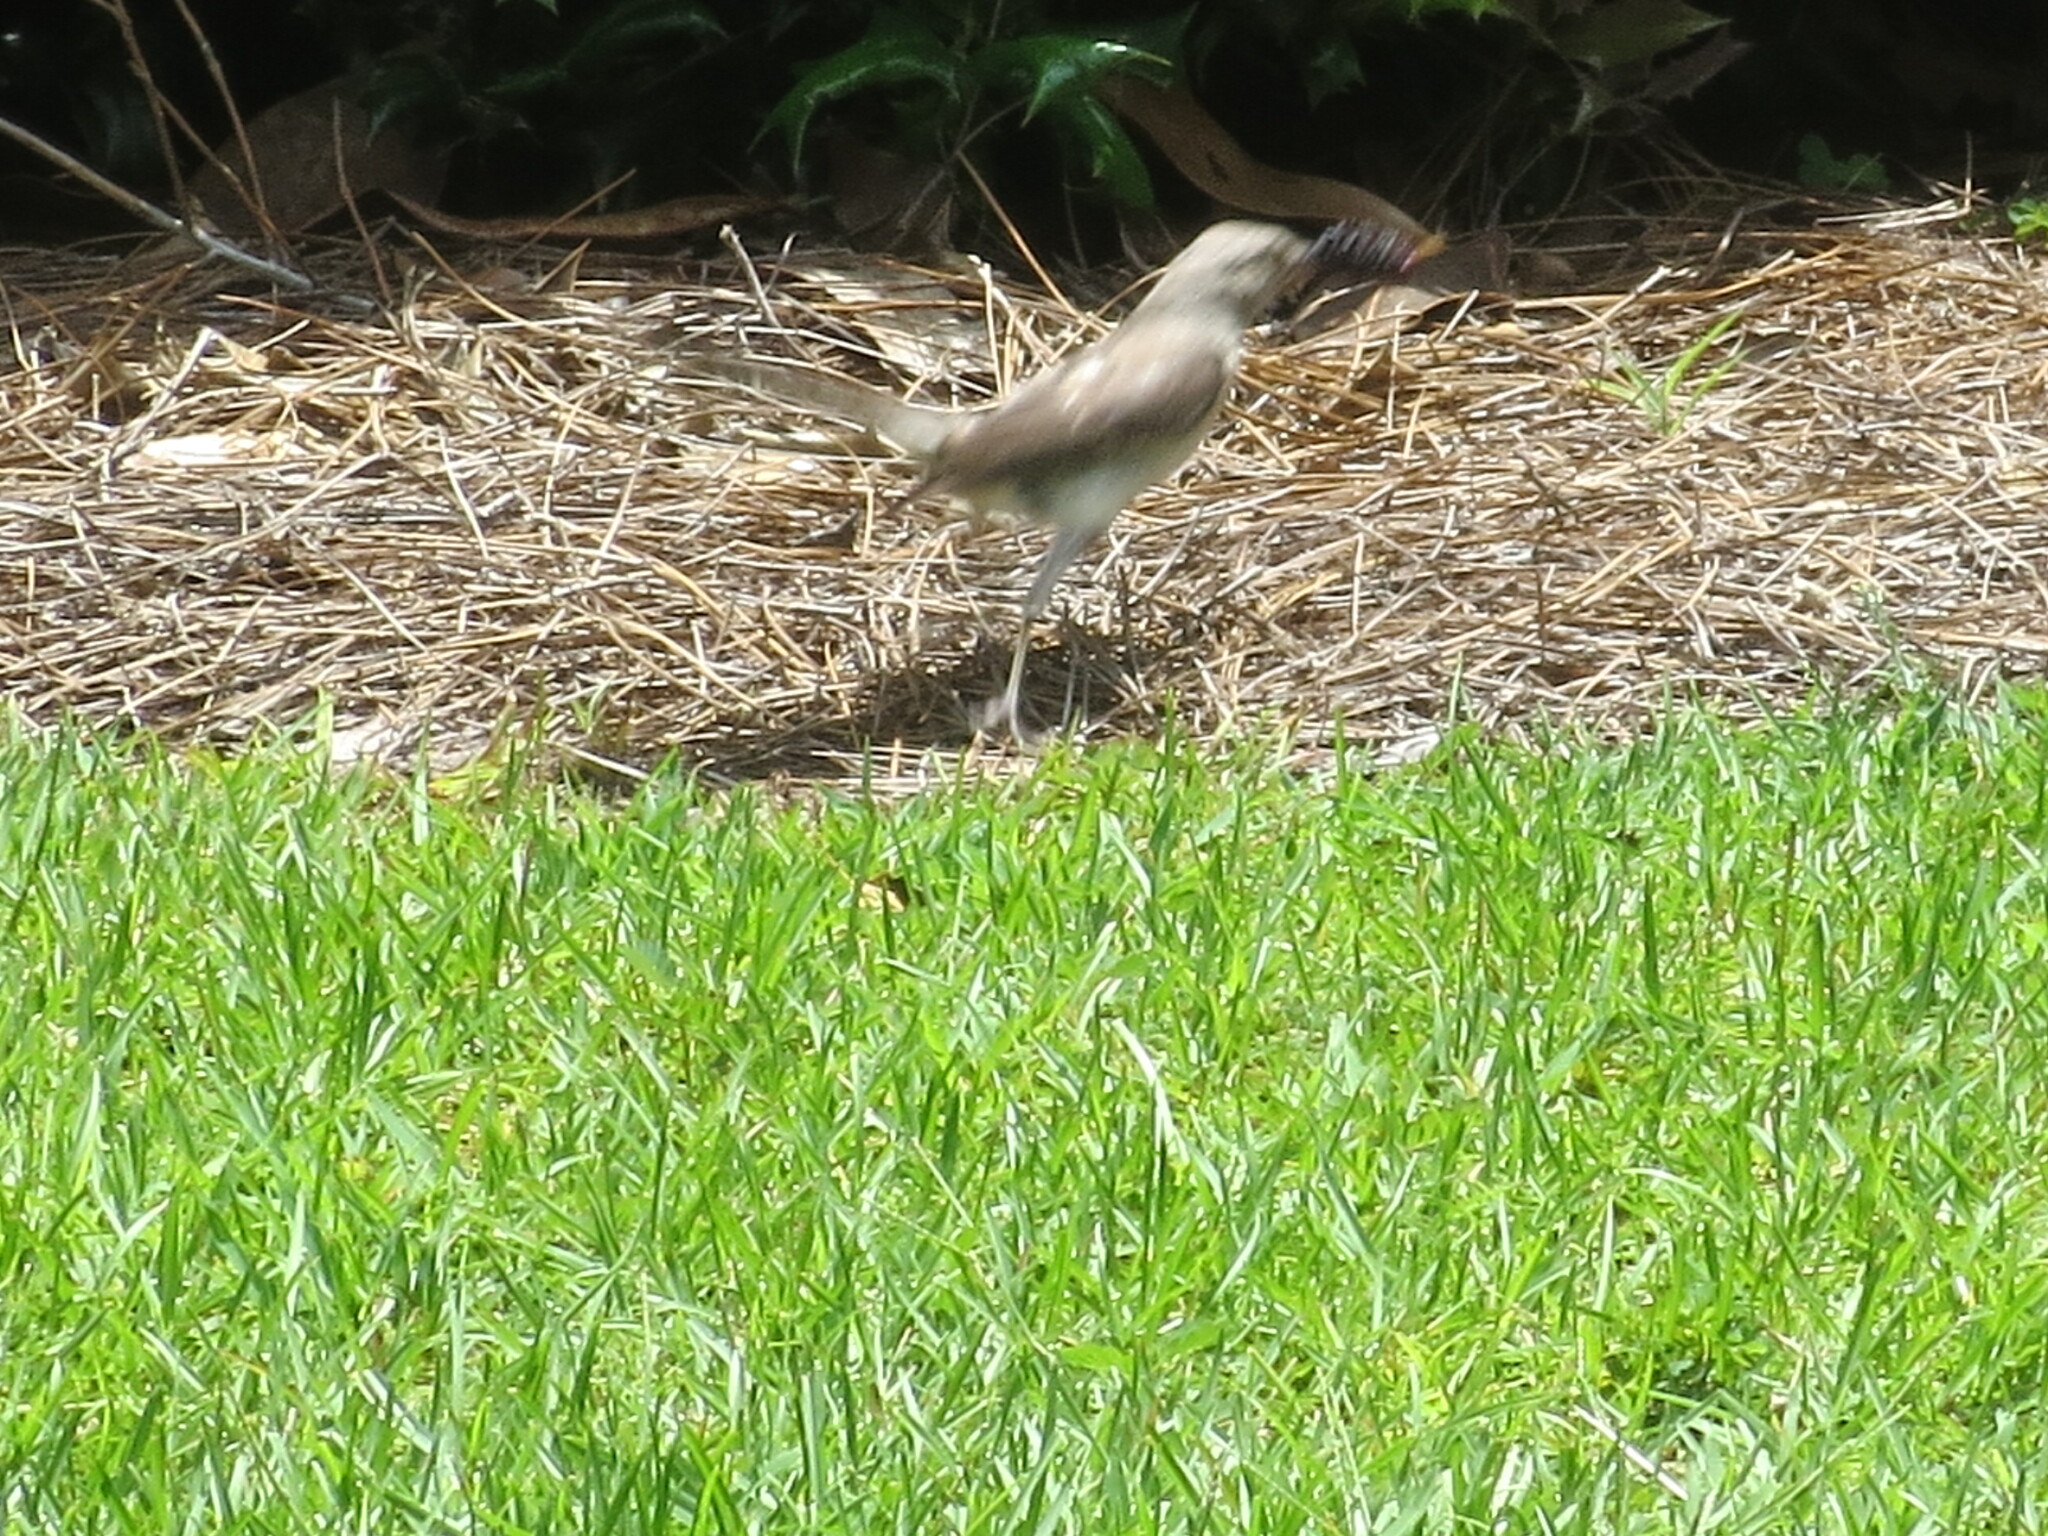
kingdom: Animalia
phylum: Chordata
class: Aves
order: Passeriformes
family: Mimidae
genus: Mimus
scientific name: Mimus polyglottos
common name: Northern mockingbird
